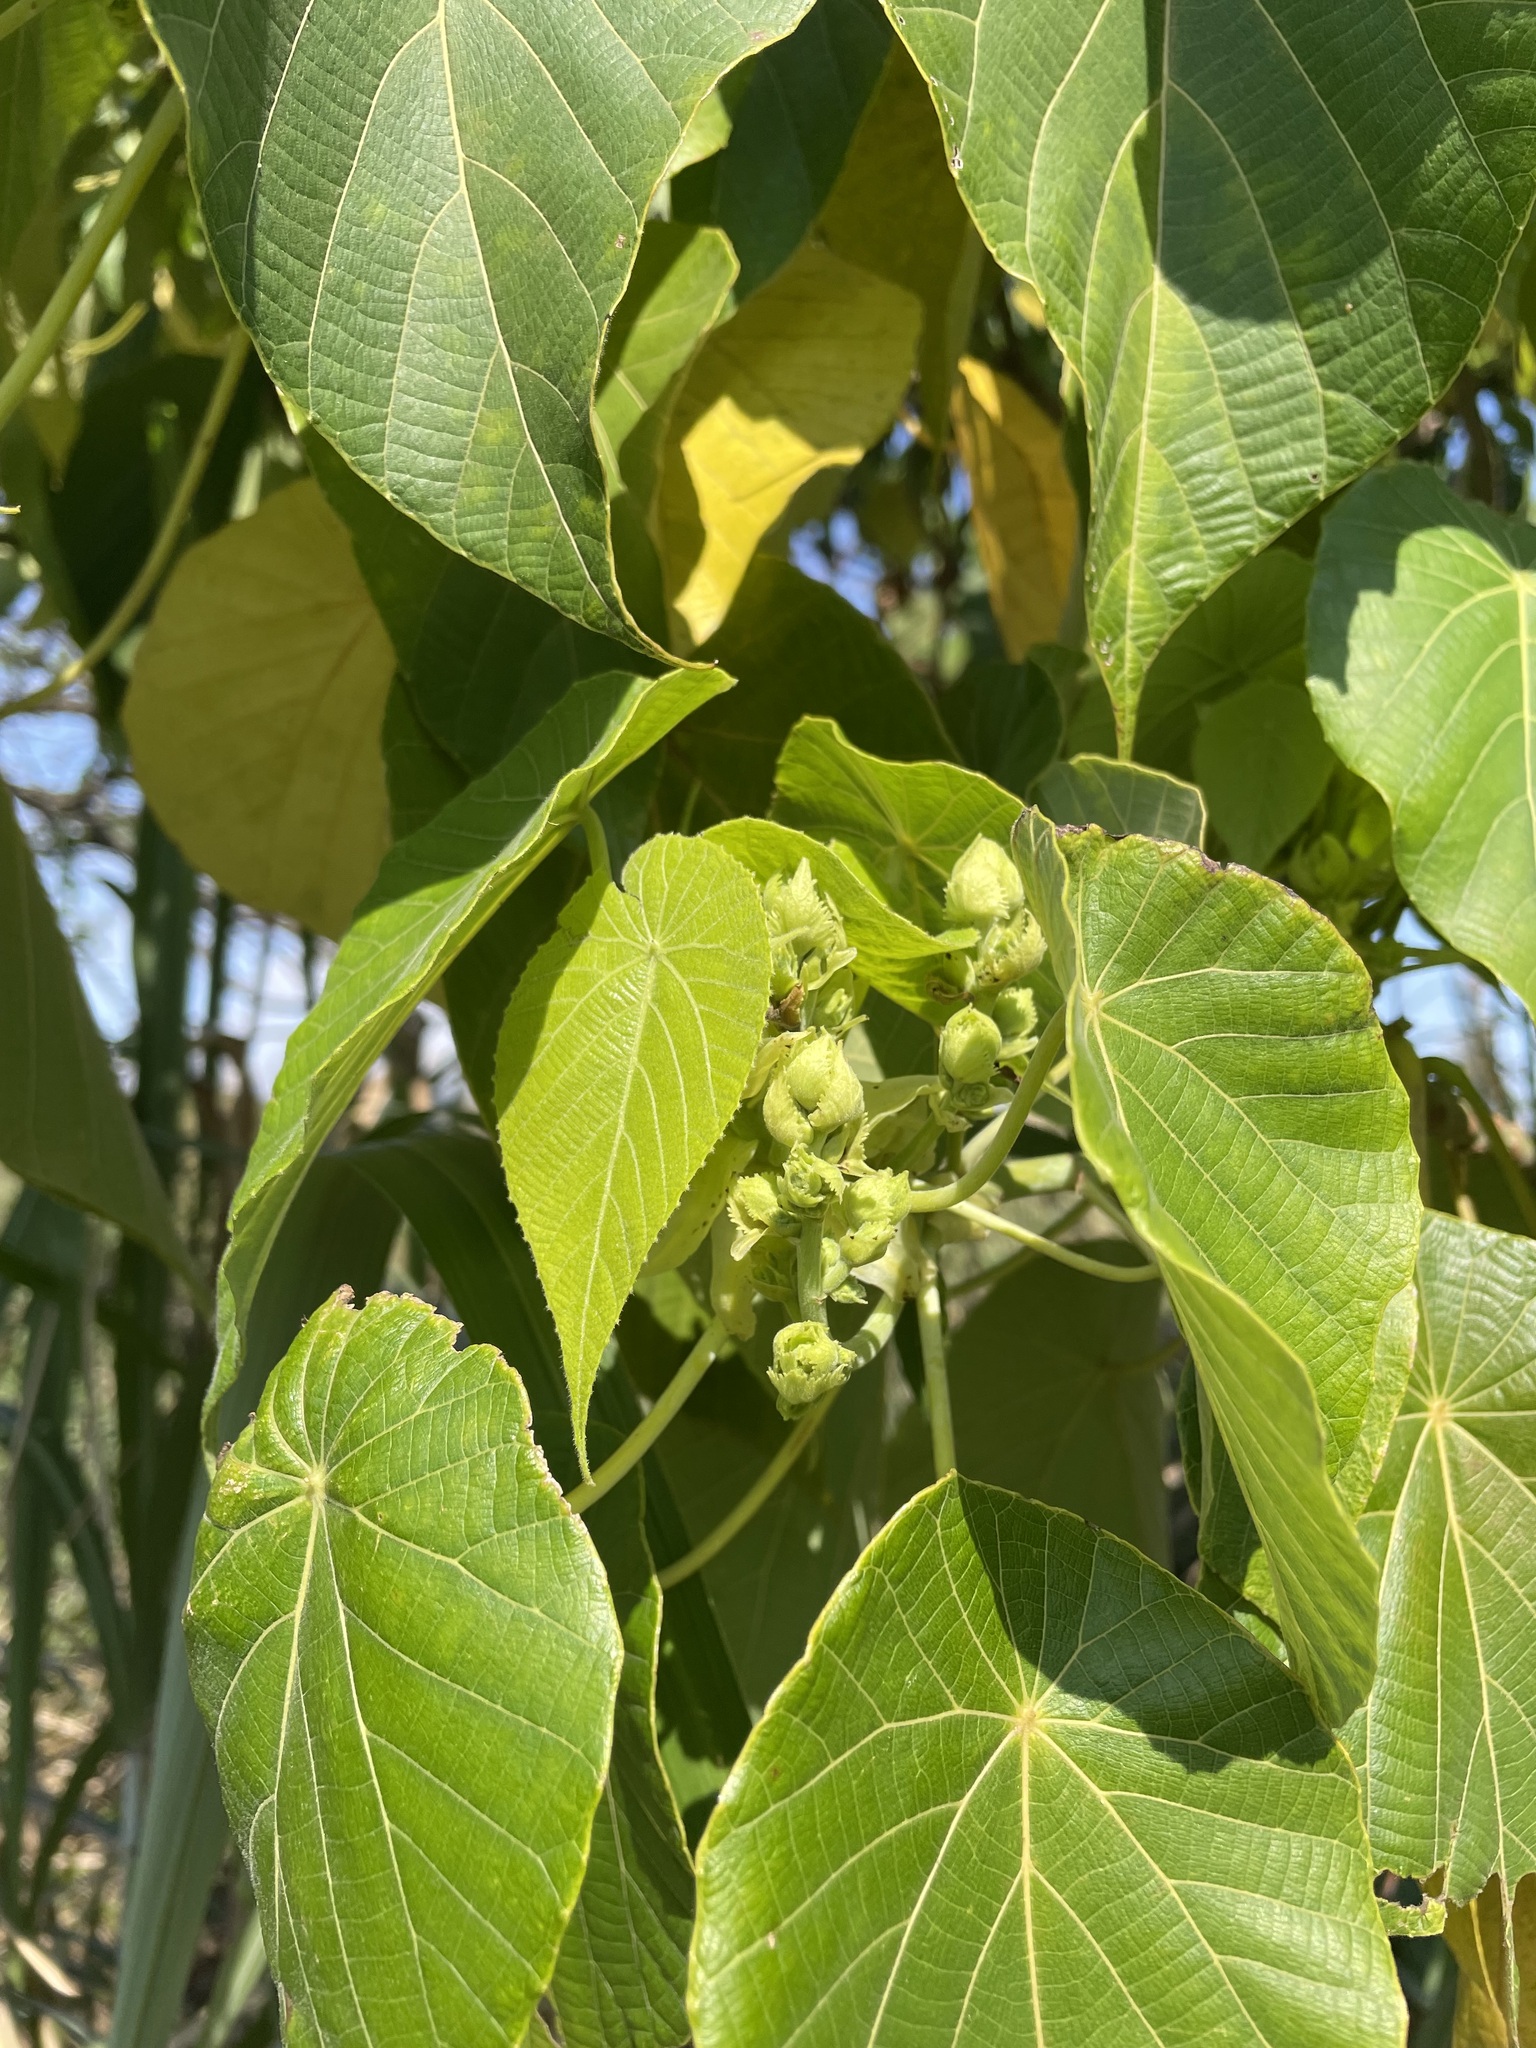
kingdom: Plantae
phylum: Tracheophyta
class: Magnoliopsida
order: Malpighiales
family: Euphorbiaceae
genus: Macaranga
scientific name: Macaranga tanarius
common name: Parasol leaf tree
